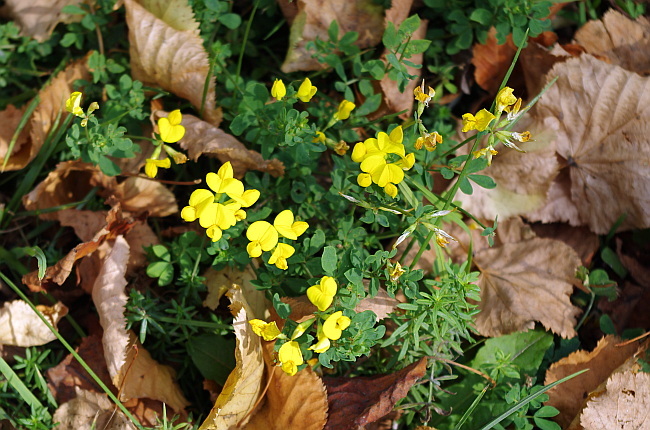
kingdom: Plantae
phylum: Tracheophyta
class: Magnoliopsida
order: Fabales
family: Fabaceae
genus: Lotus
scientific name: Lotus corniculatus
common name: Common bird's-foot-trefoil
